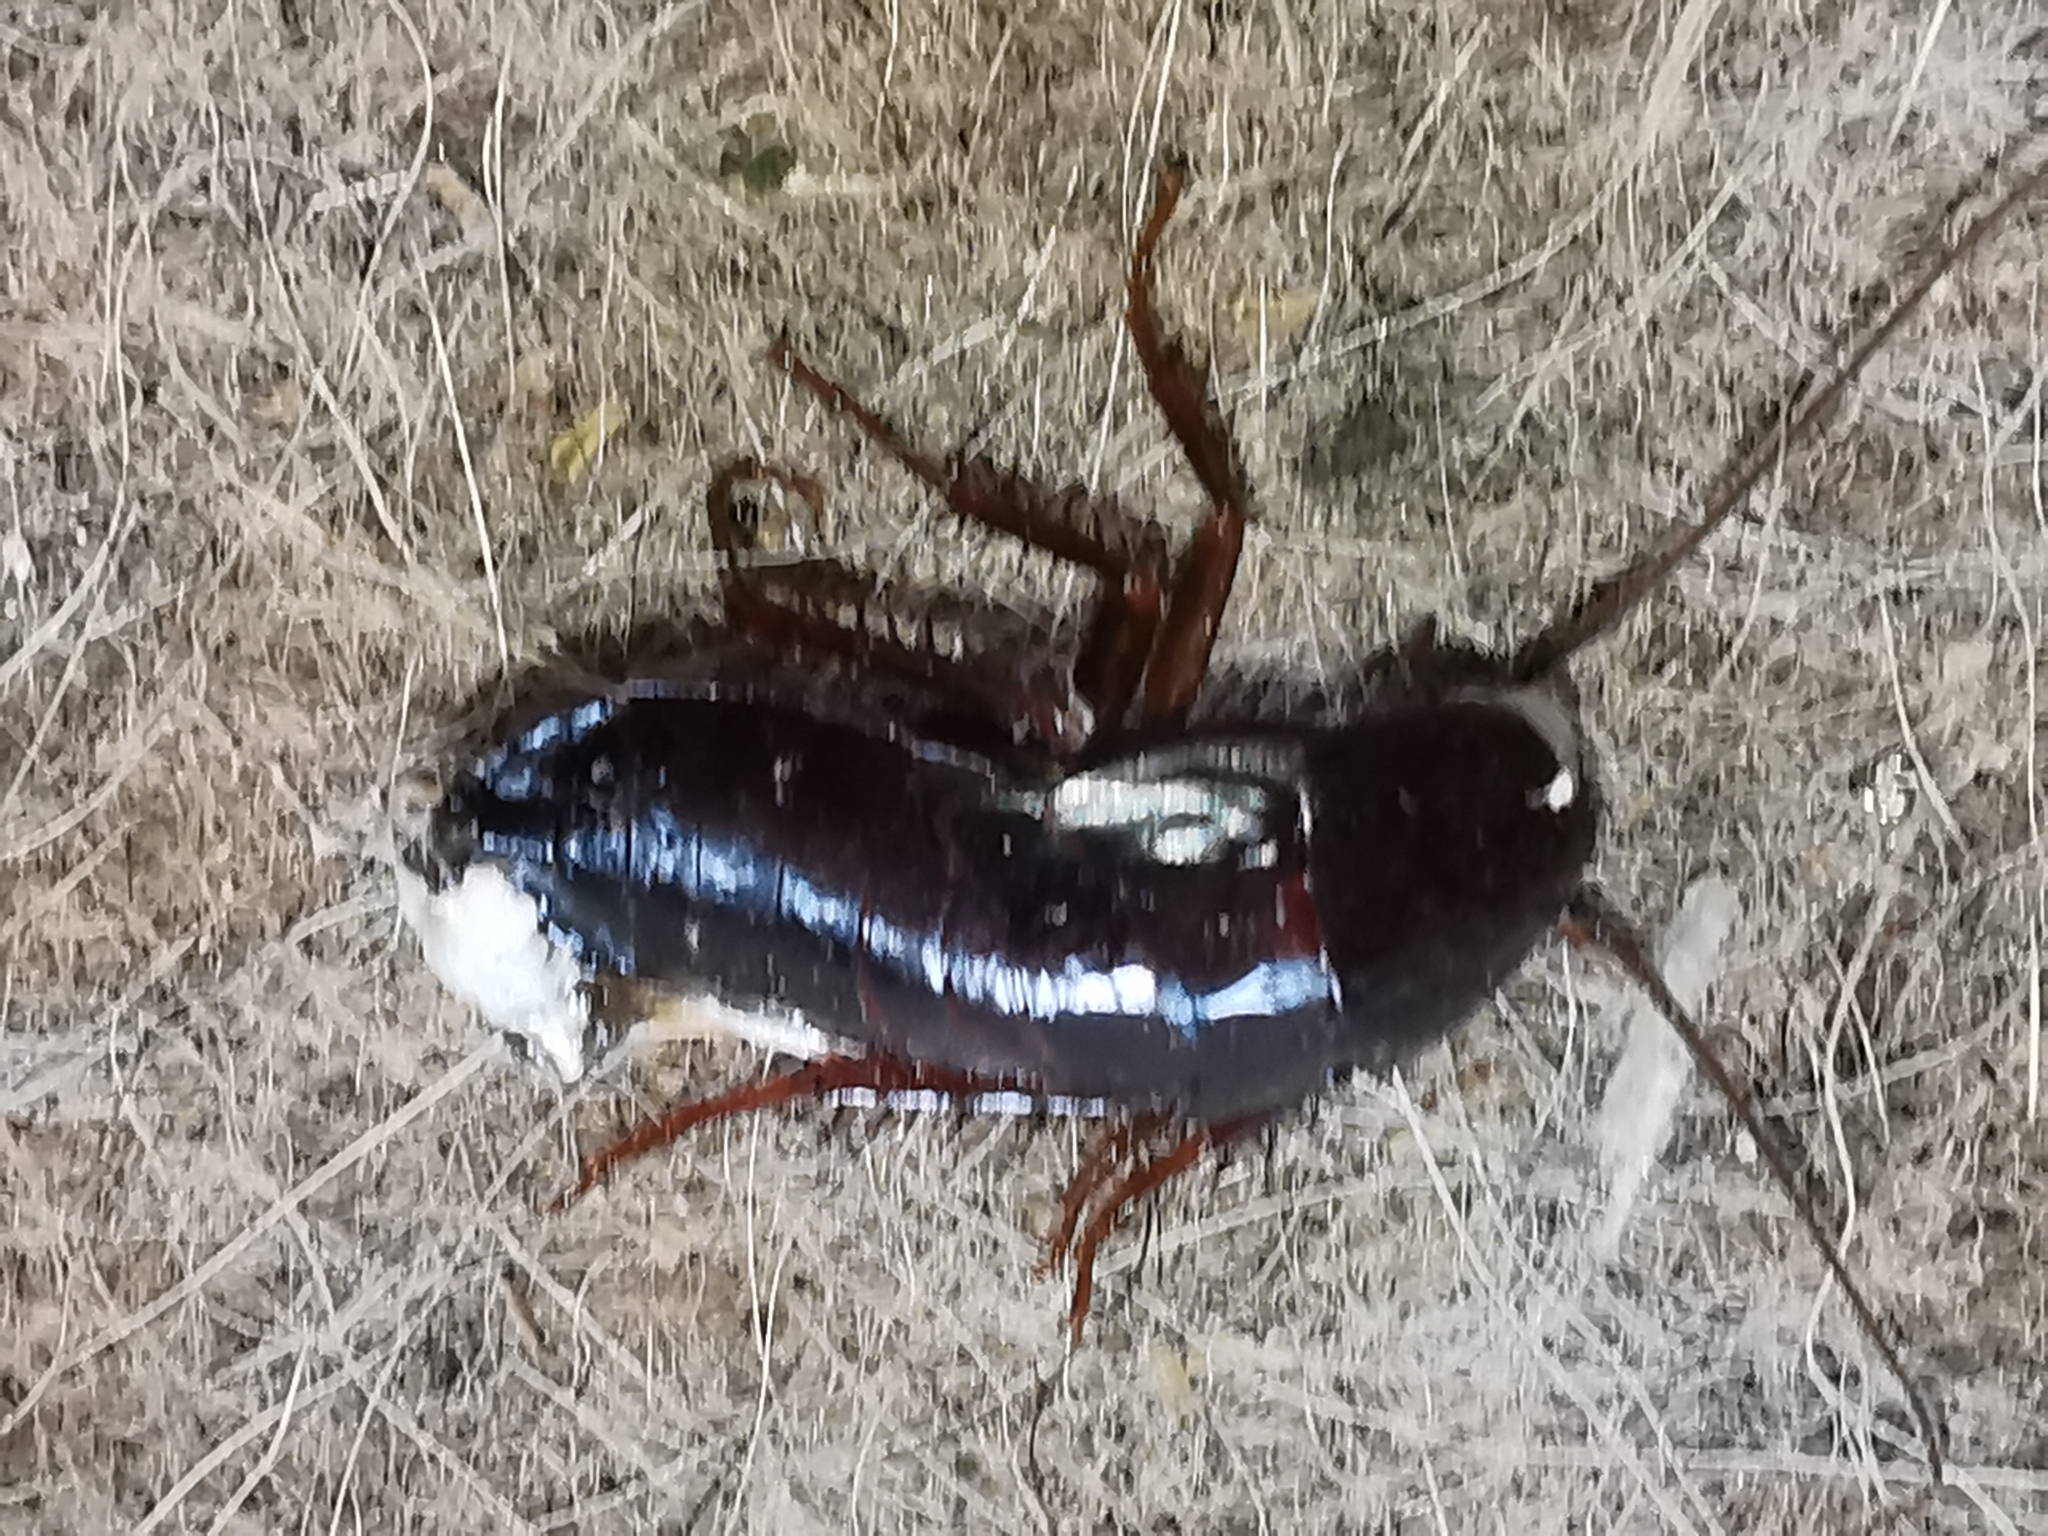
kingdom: Animalia
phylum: Arthropoda
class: Insecta
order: Blattodea
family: Blattidae
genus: Blatta
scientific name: Blatta orientalis
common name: Oriental cockroach
